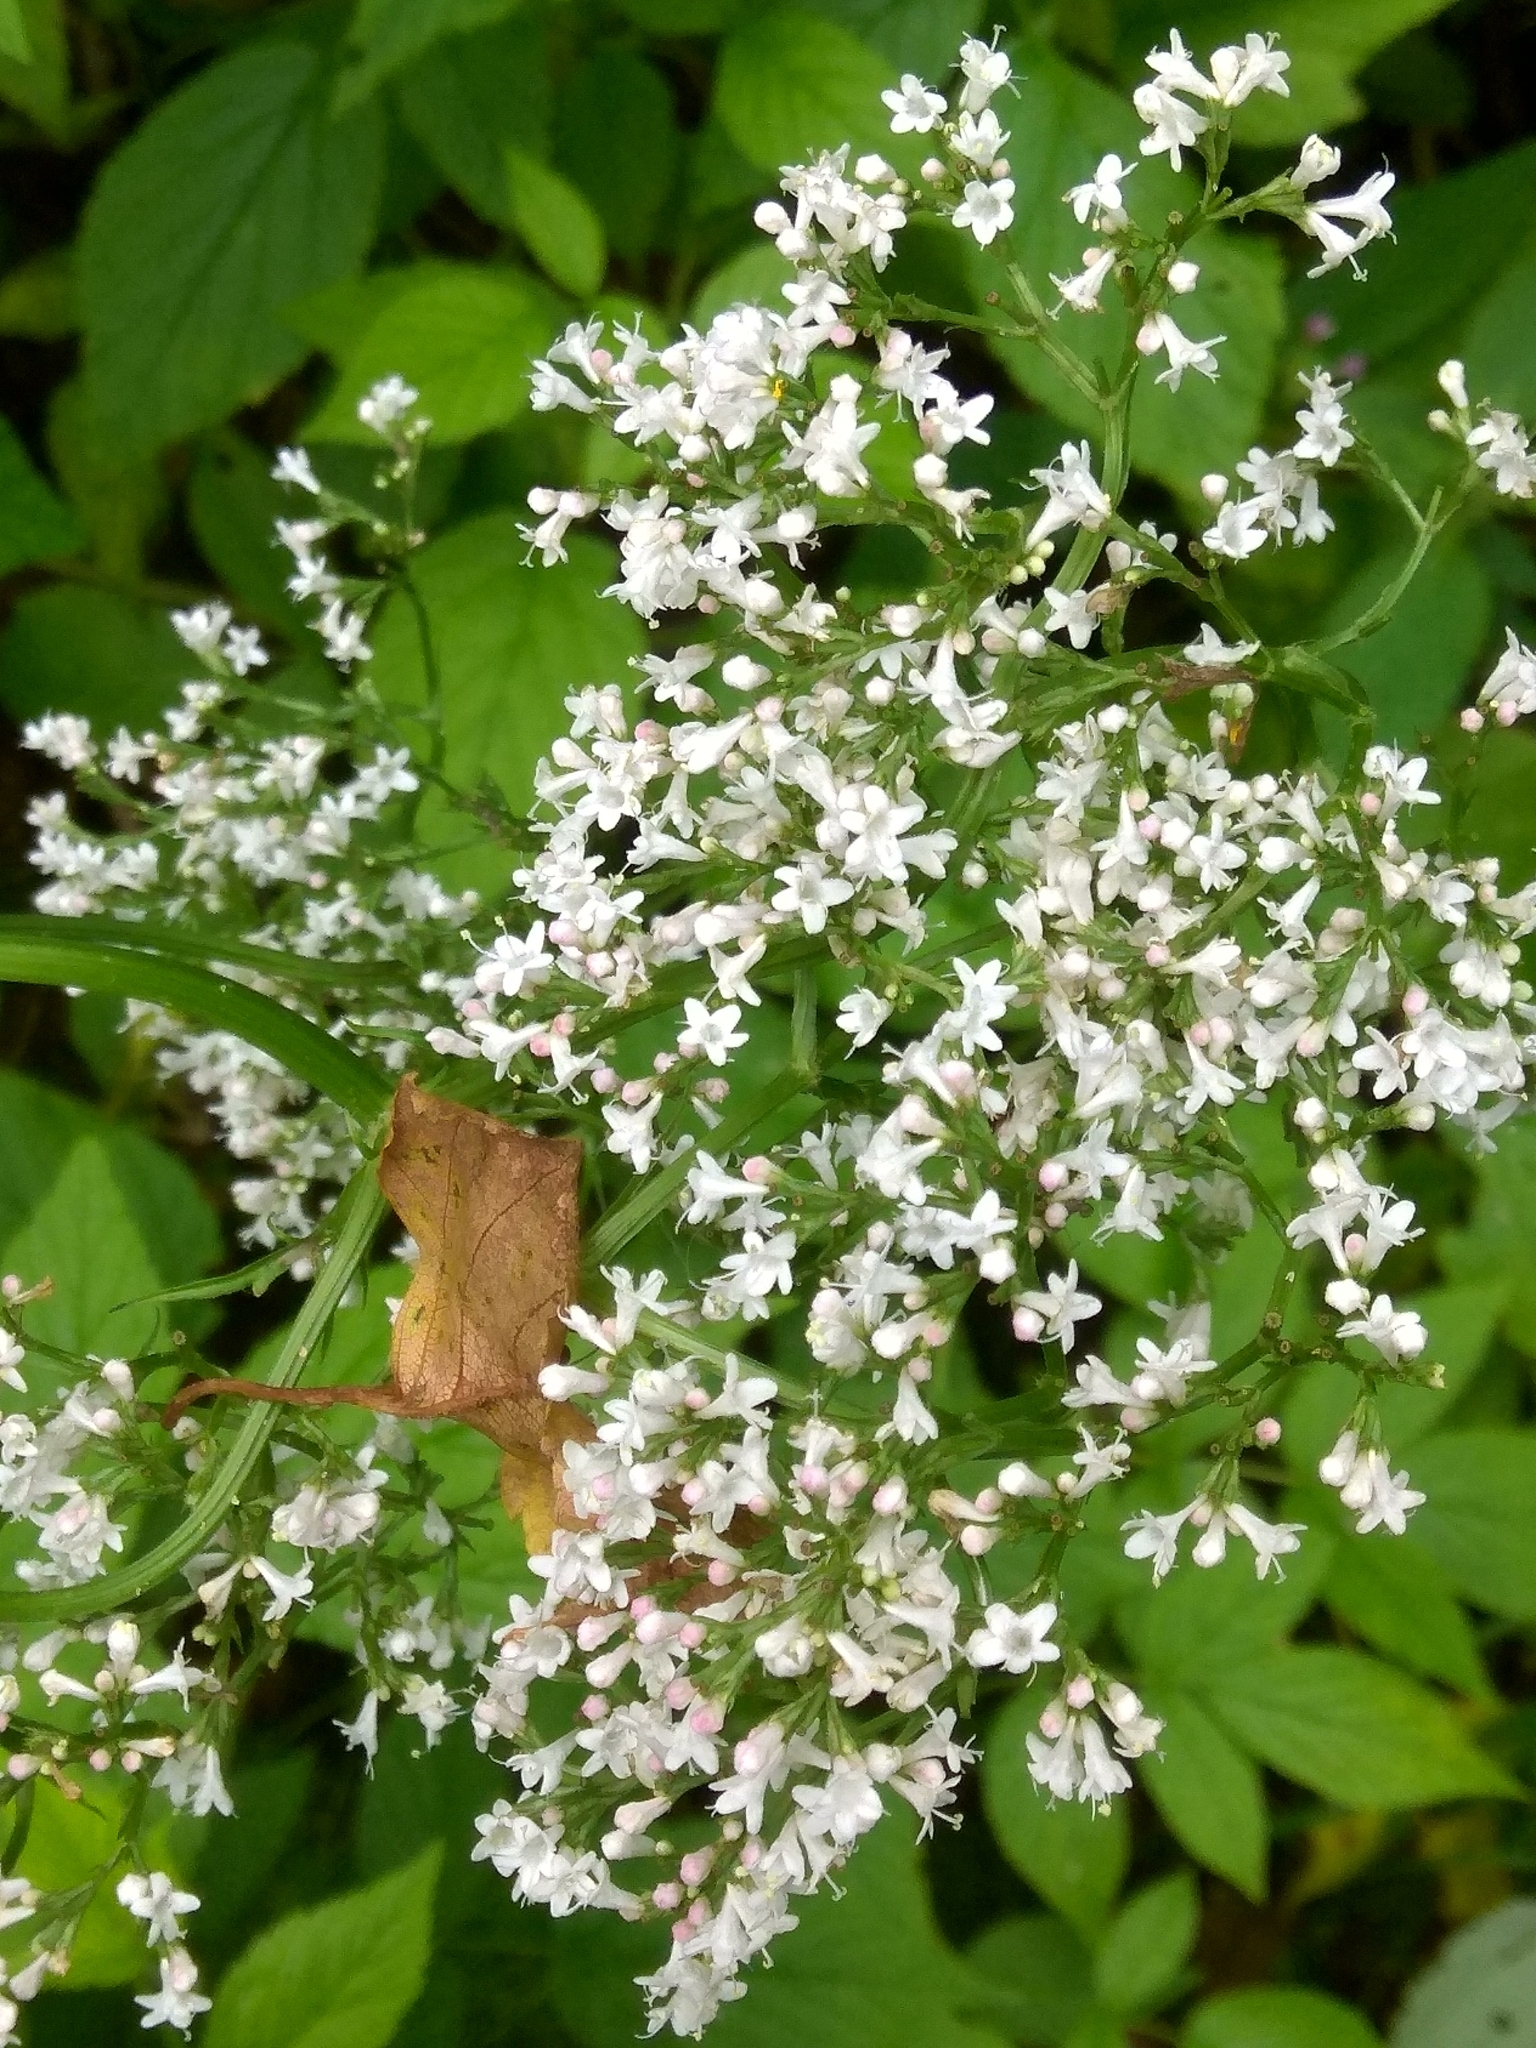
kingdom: Plantae
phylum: Tracheophyta
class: Magnoliopsida
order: Dipsacales
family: Caprifoliaceae
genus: Valeriana
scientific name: Valeriana officinalis
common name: Common valerian
